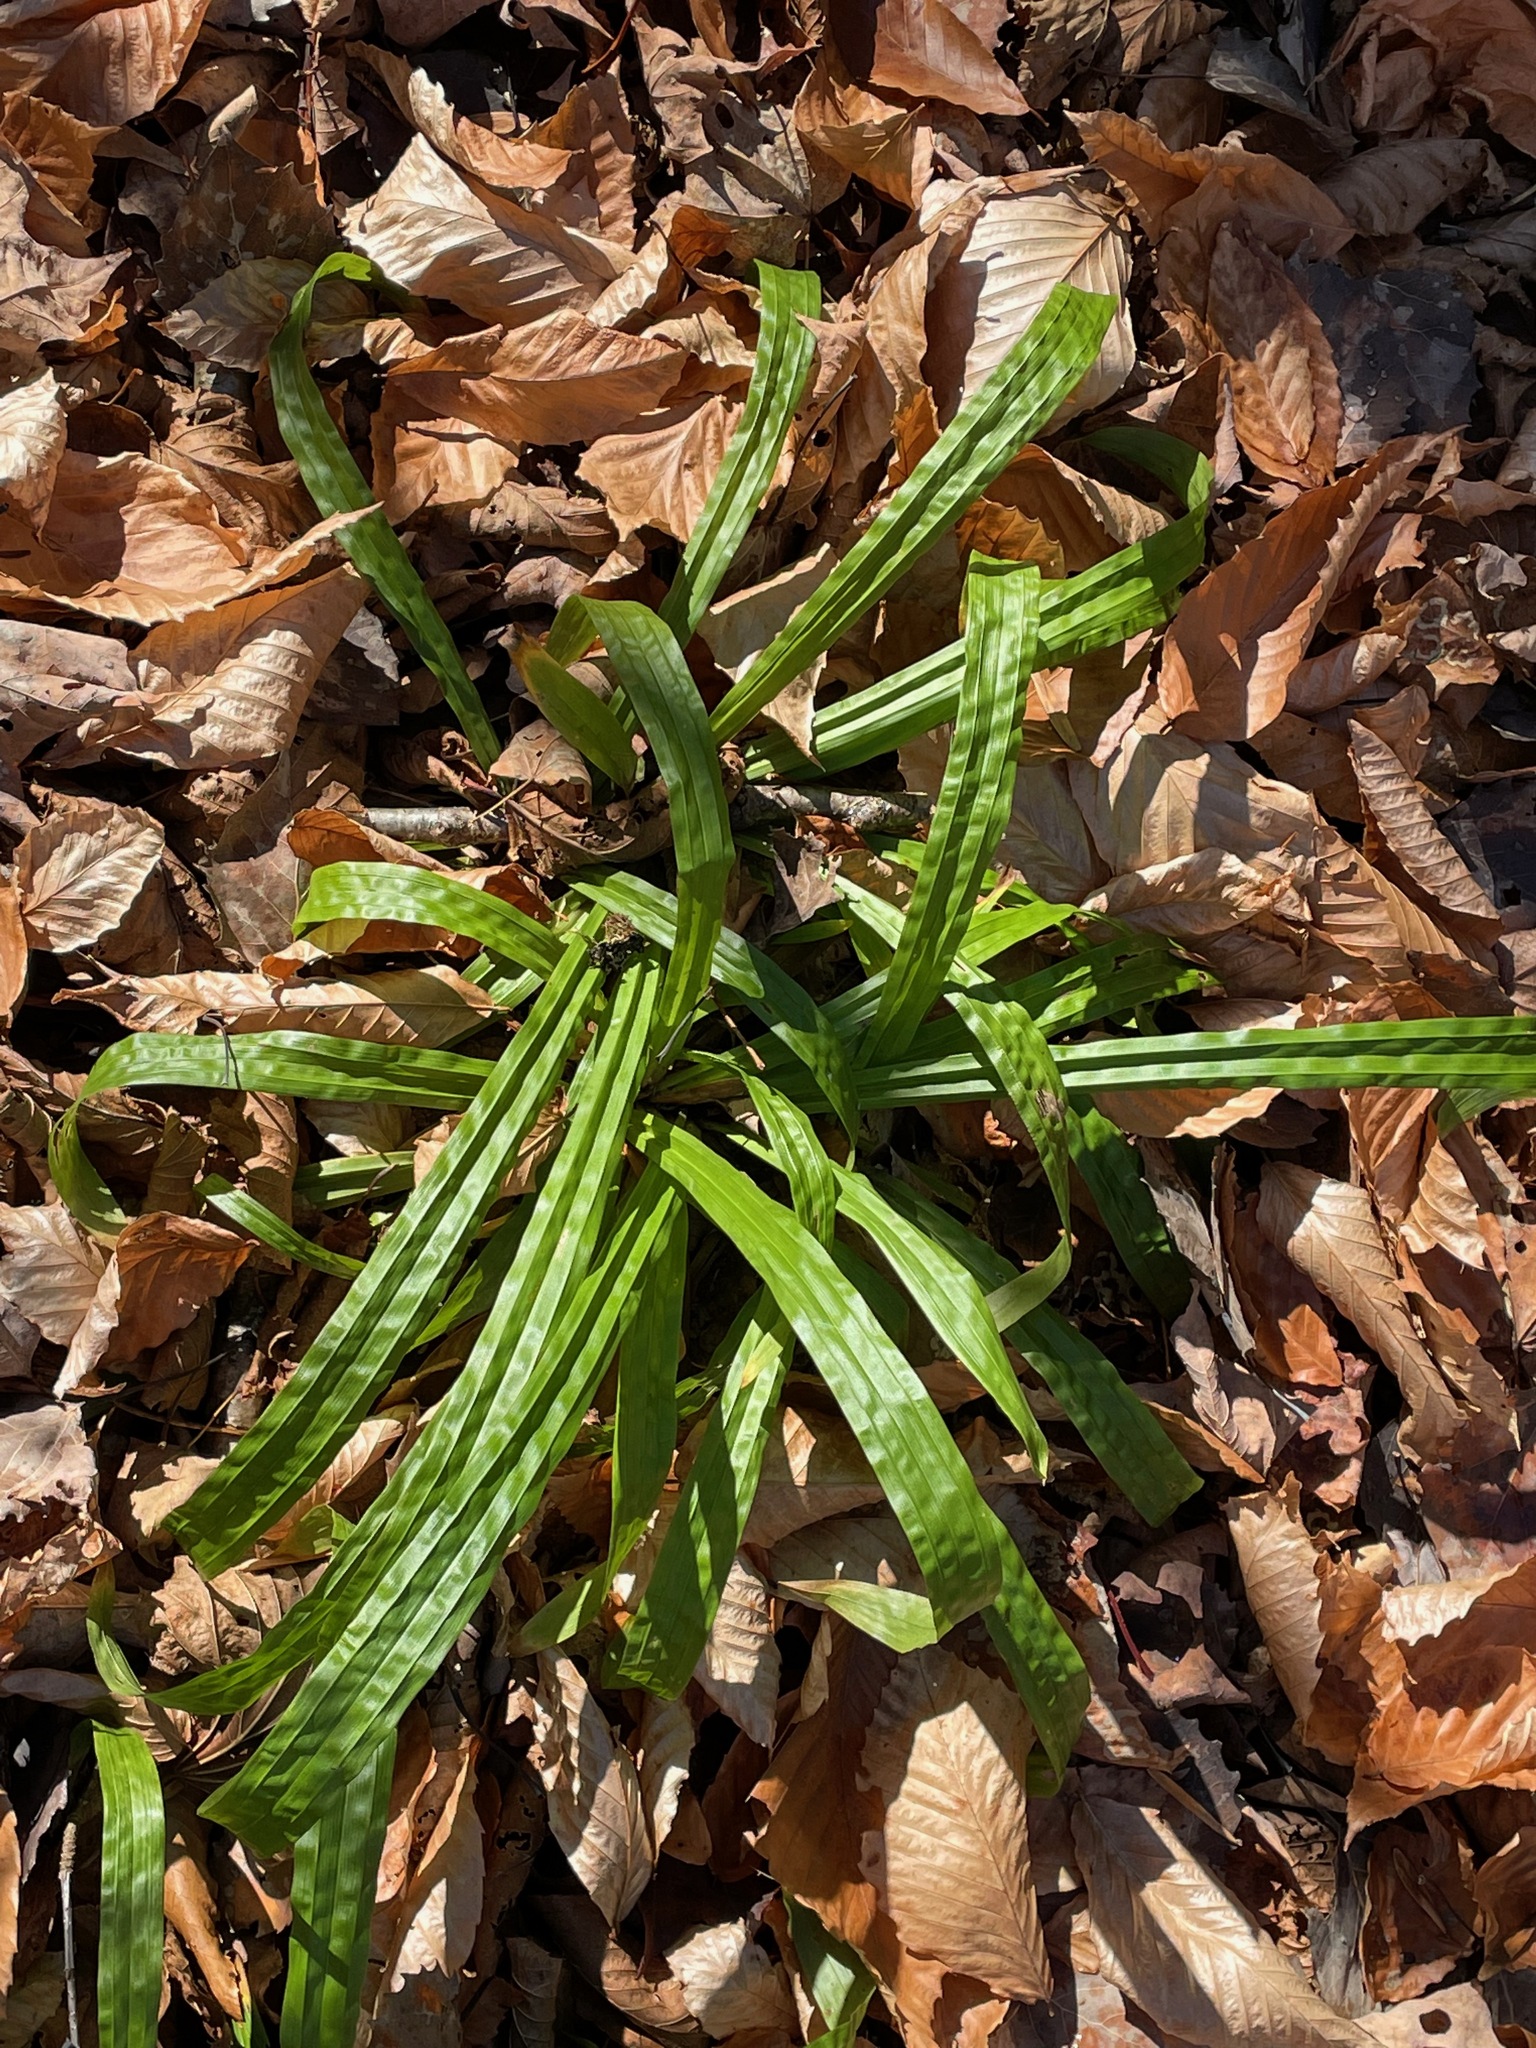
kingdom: Plantae
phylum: Tracheophyta
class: Liliopsida
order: Poales
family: Cyperaceae
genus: Carex
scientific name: Carex plantaginea
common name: Plantain-leaved sedge
